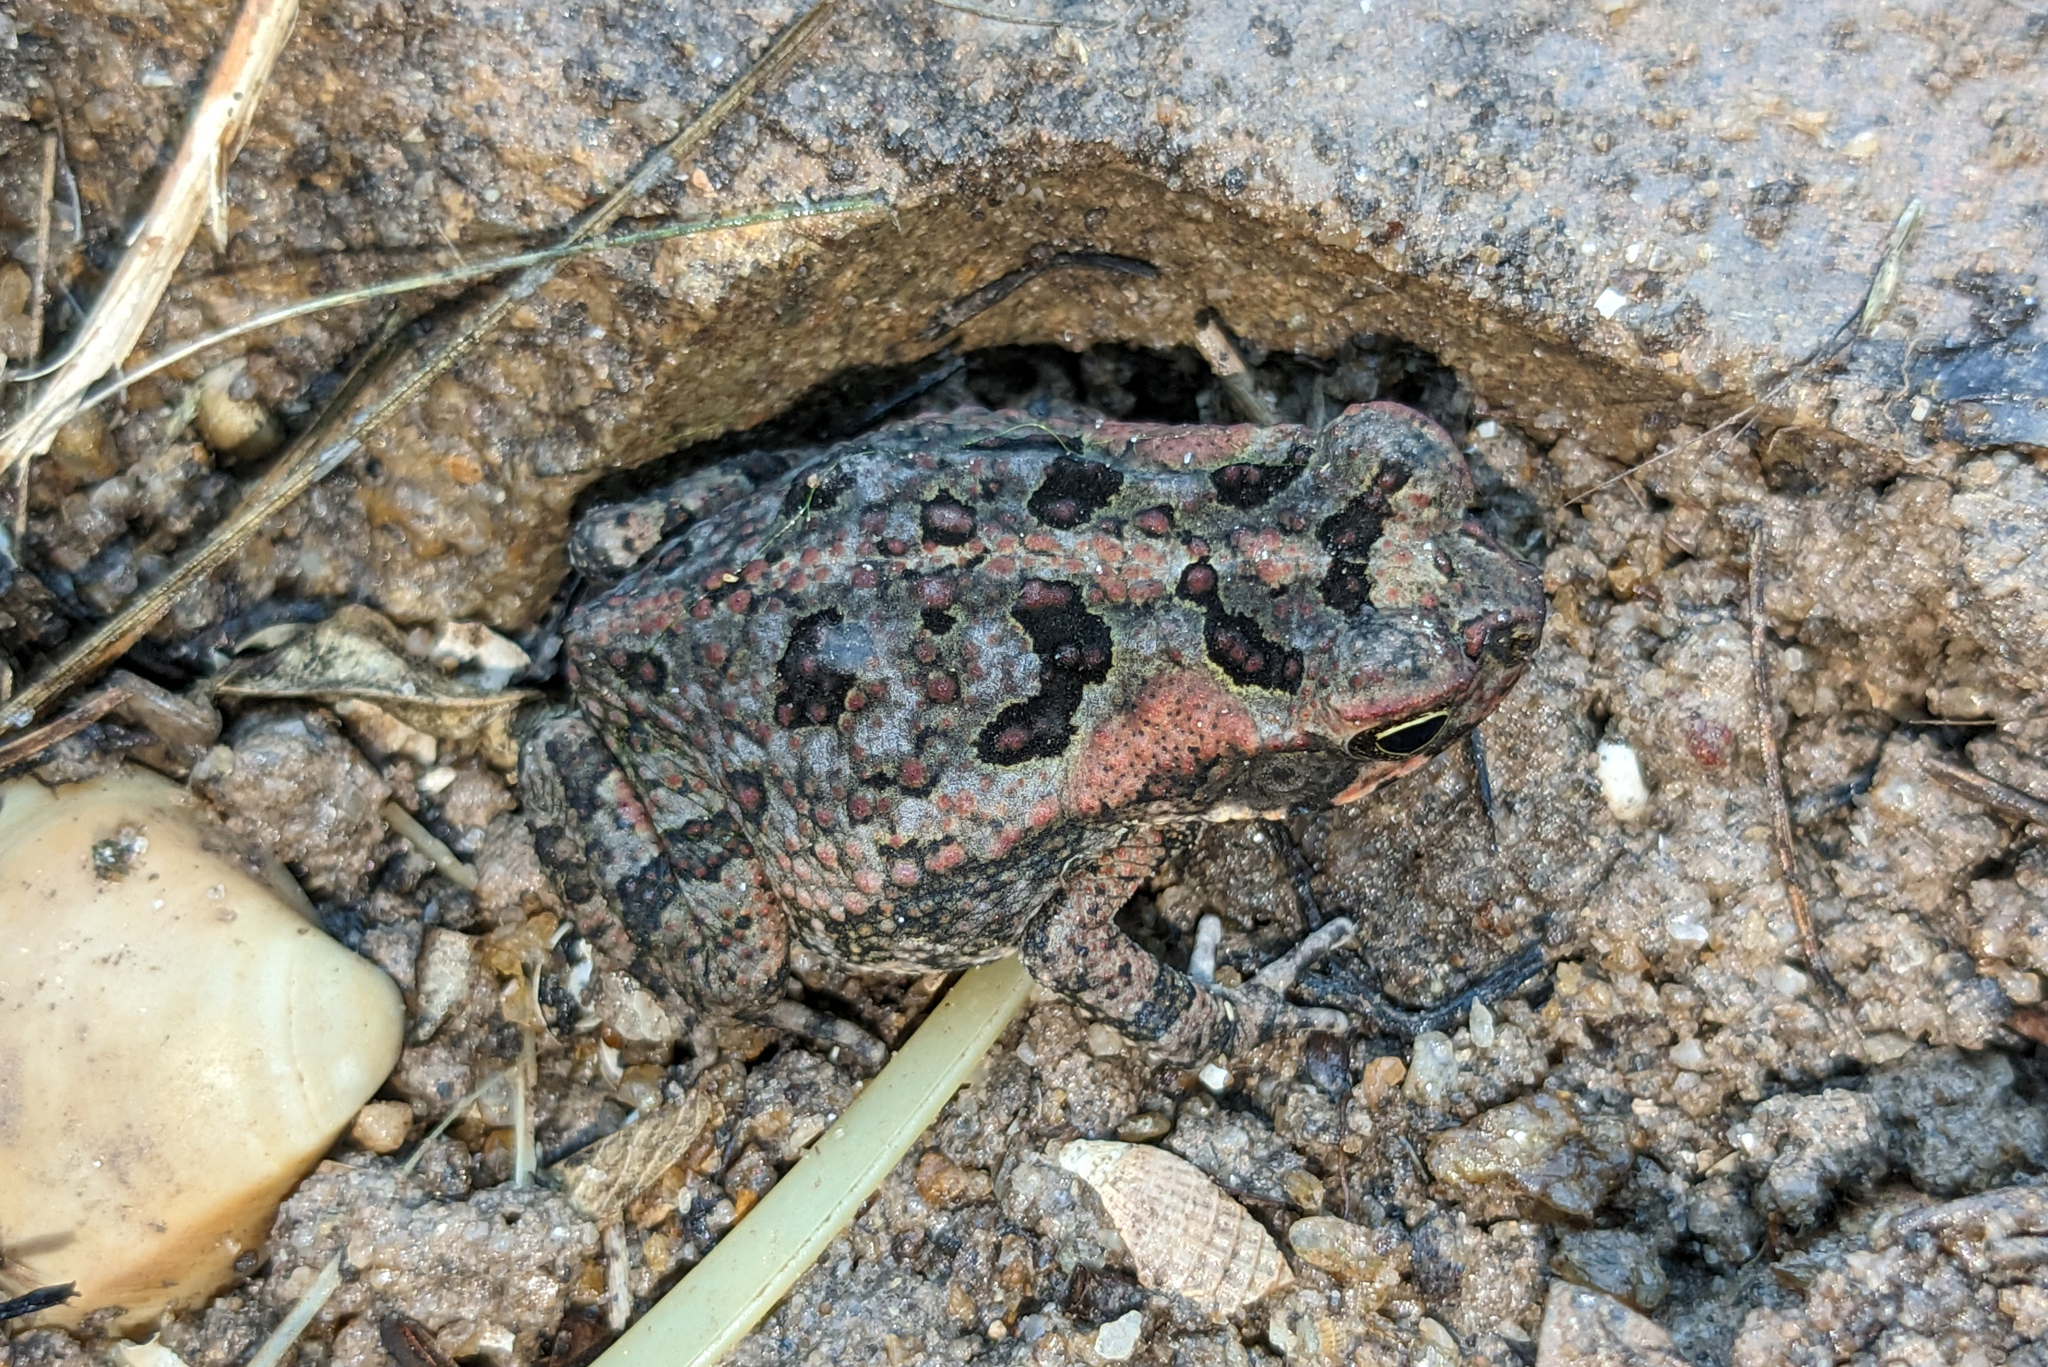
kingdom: Animalia
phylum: Chordata
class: Amphibia
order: Anura
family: Bufonidae
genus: Rhinella
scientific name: Rhinella marina
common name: Cane toad
